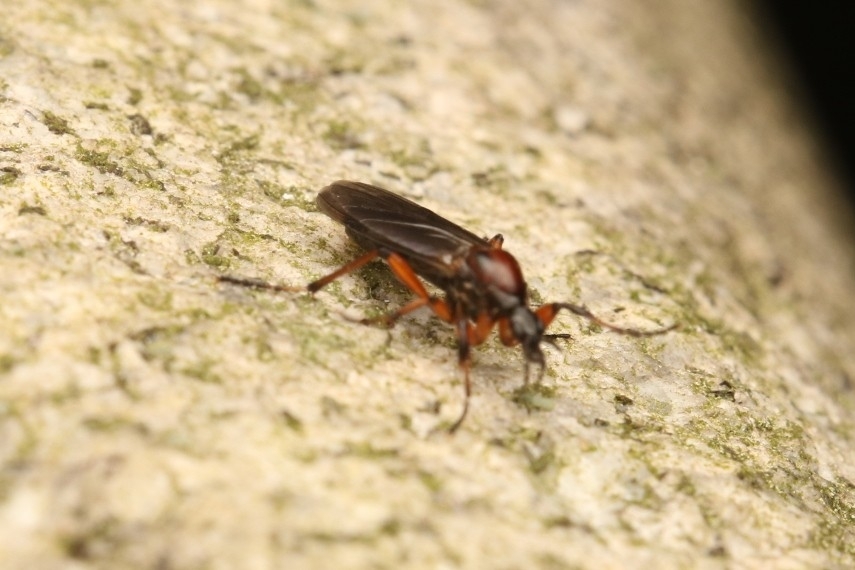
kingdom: Animalia
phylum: Arthropoda
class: Insecta
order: Diptera
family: Bibionidae
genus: Bibio
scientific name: Bibio articulatus
